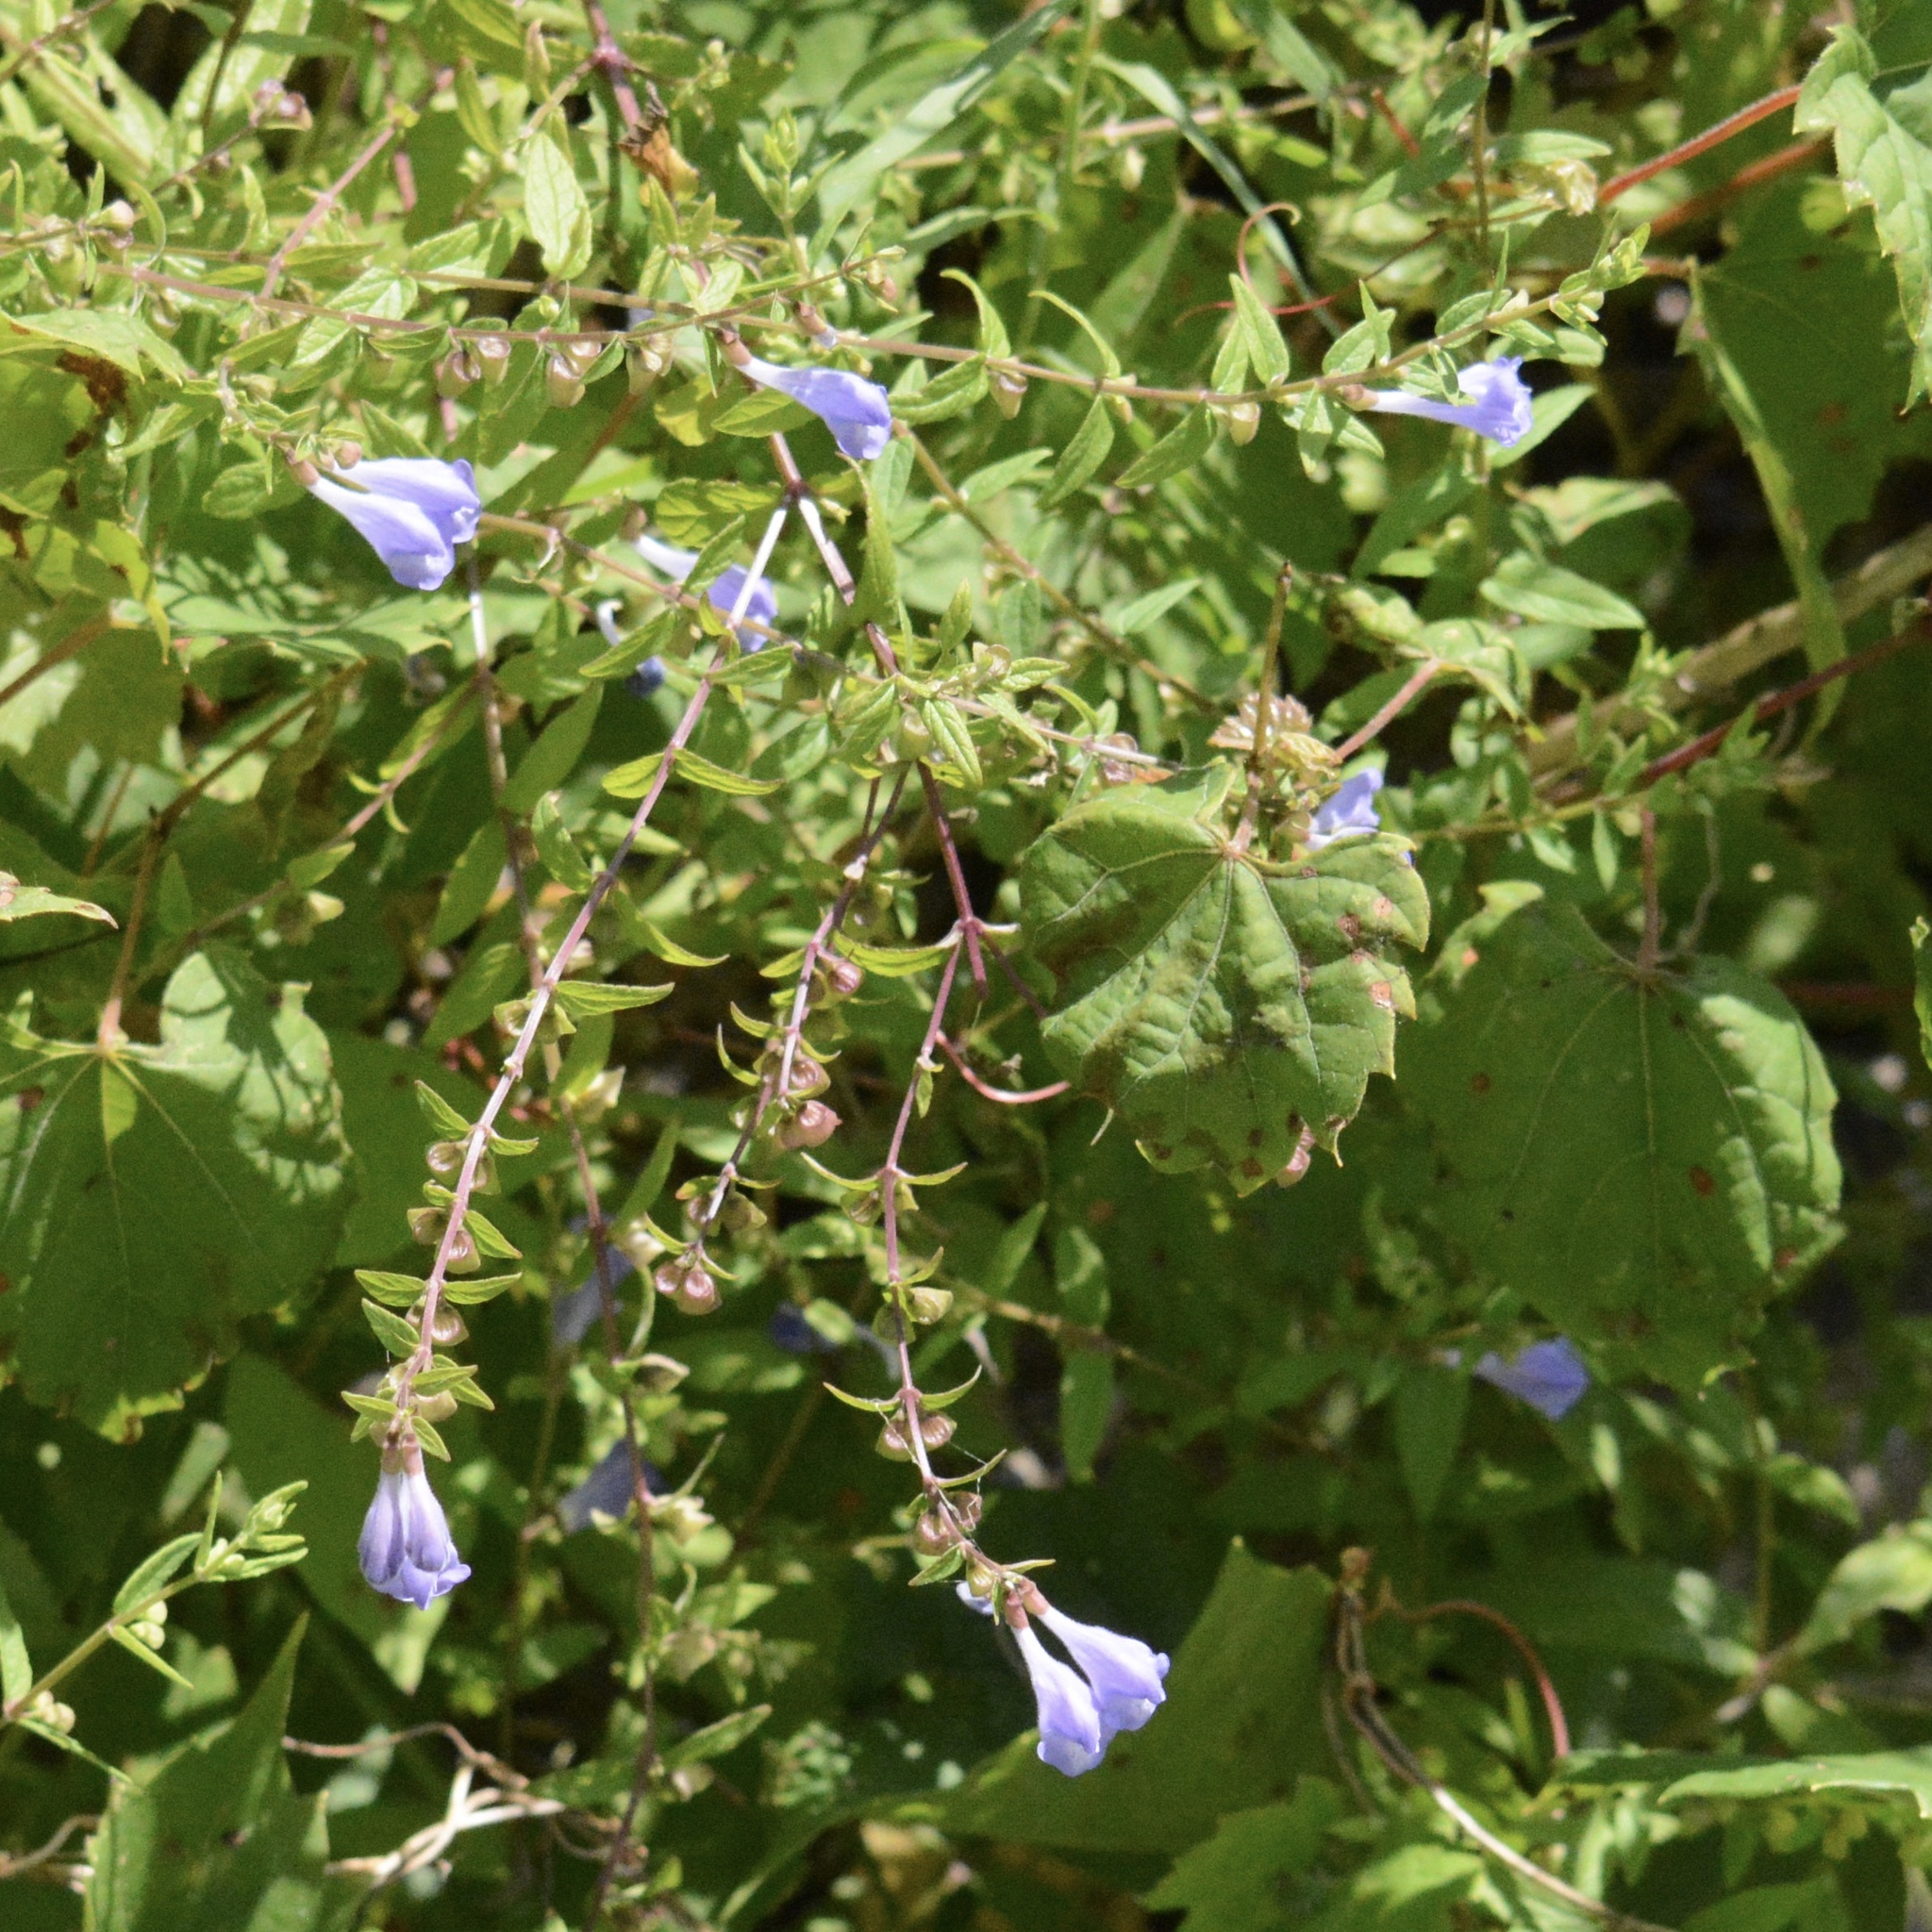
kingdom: Plantae
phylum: Tracheophyta
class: Magnoliopsida
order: Lamiales
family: Lamiaceae
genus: Scutellaria
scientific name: Scutellaria galericulata
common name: Skullcap
